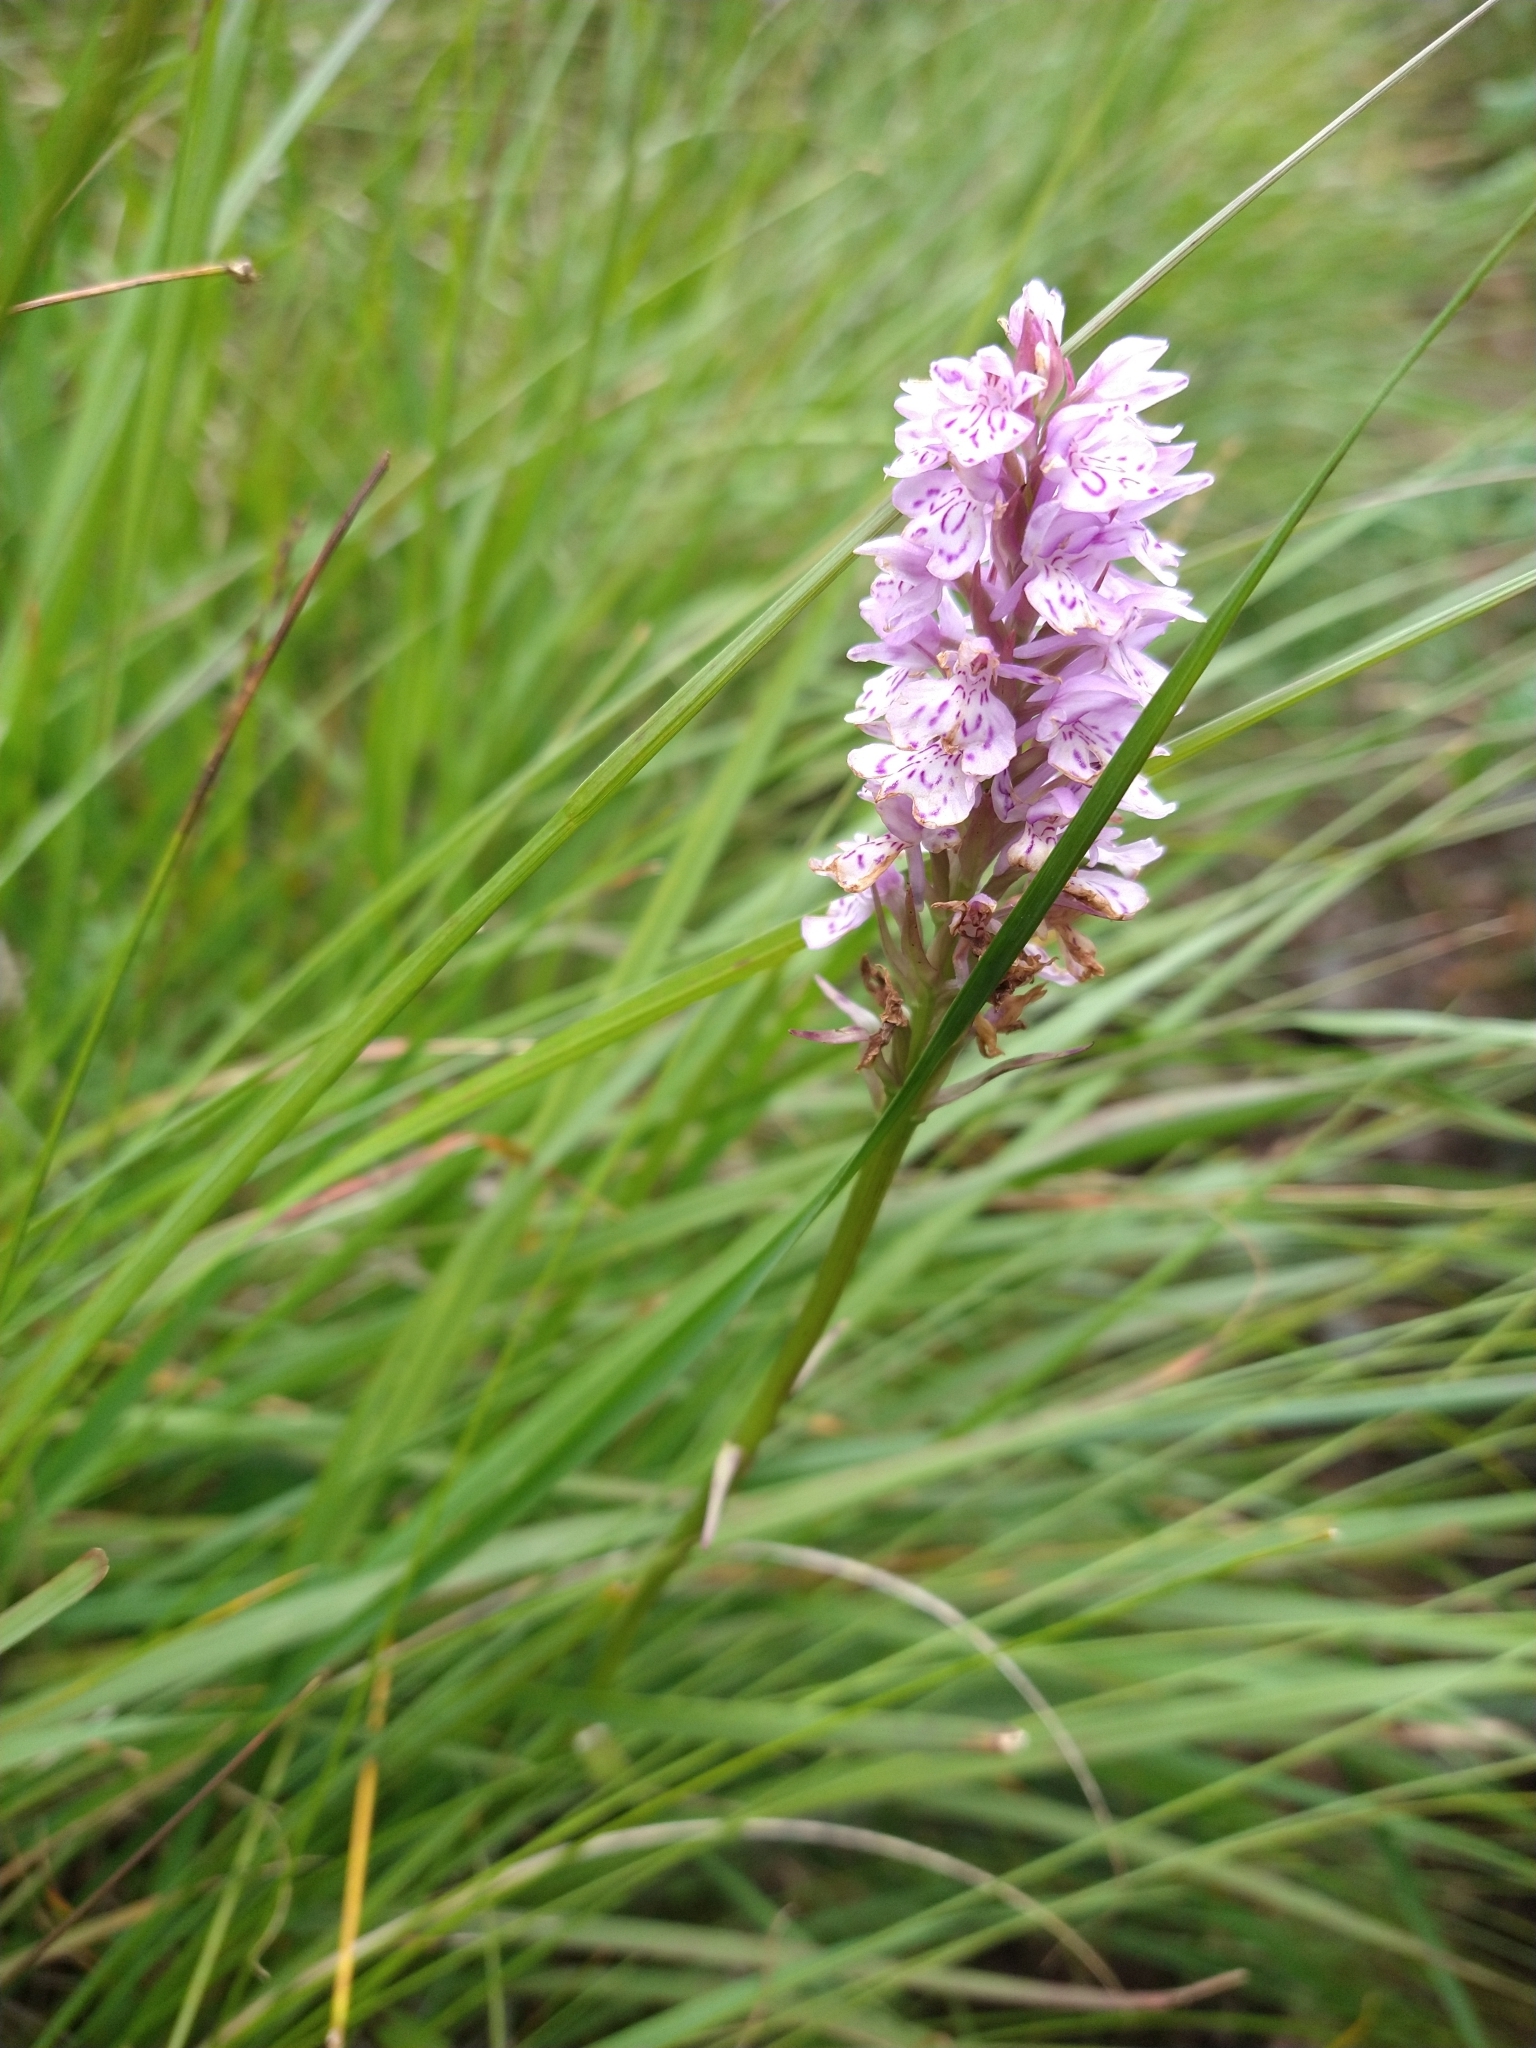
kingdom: Plantae
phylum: Tracheophyta
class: Liliopsida
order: Asparagales
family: Orchidaceae
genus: Dactylorhiza
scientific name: Dactylorhiza maculata
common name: Heath spotted-orchid
